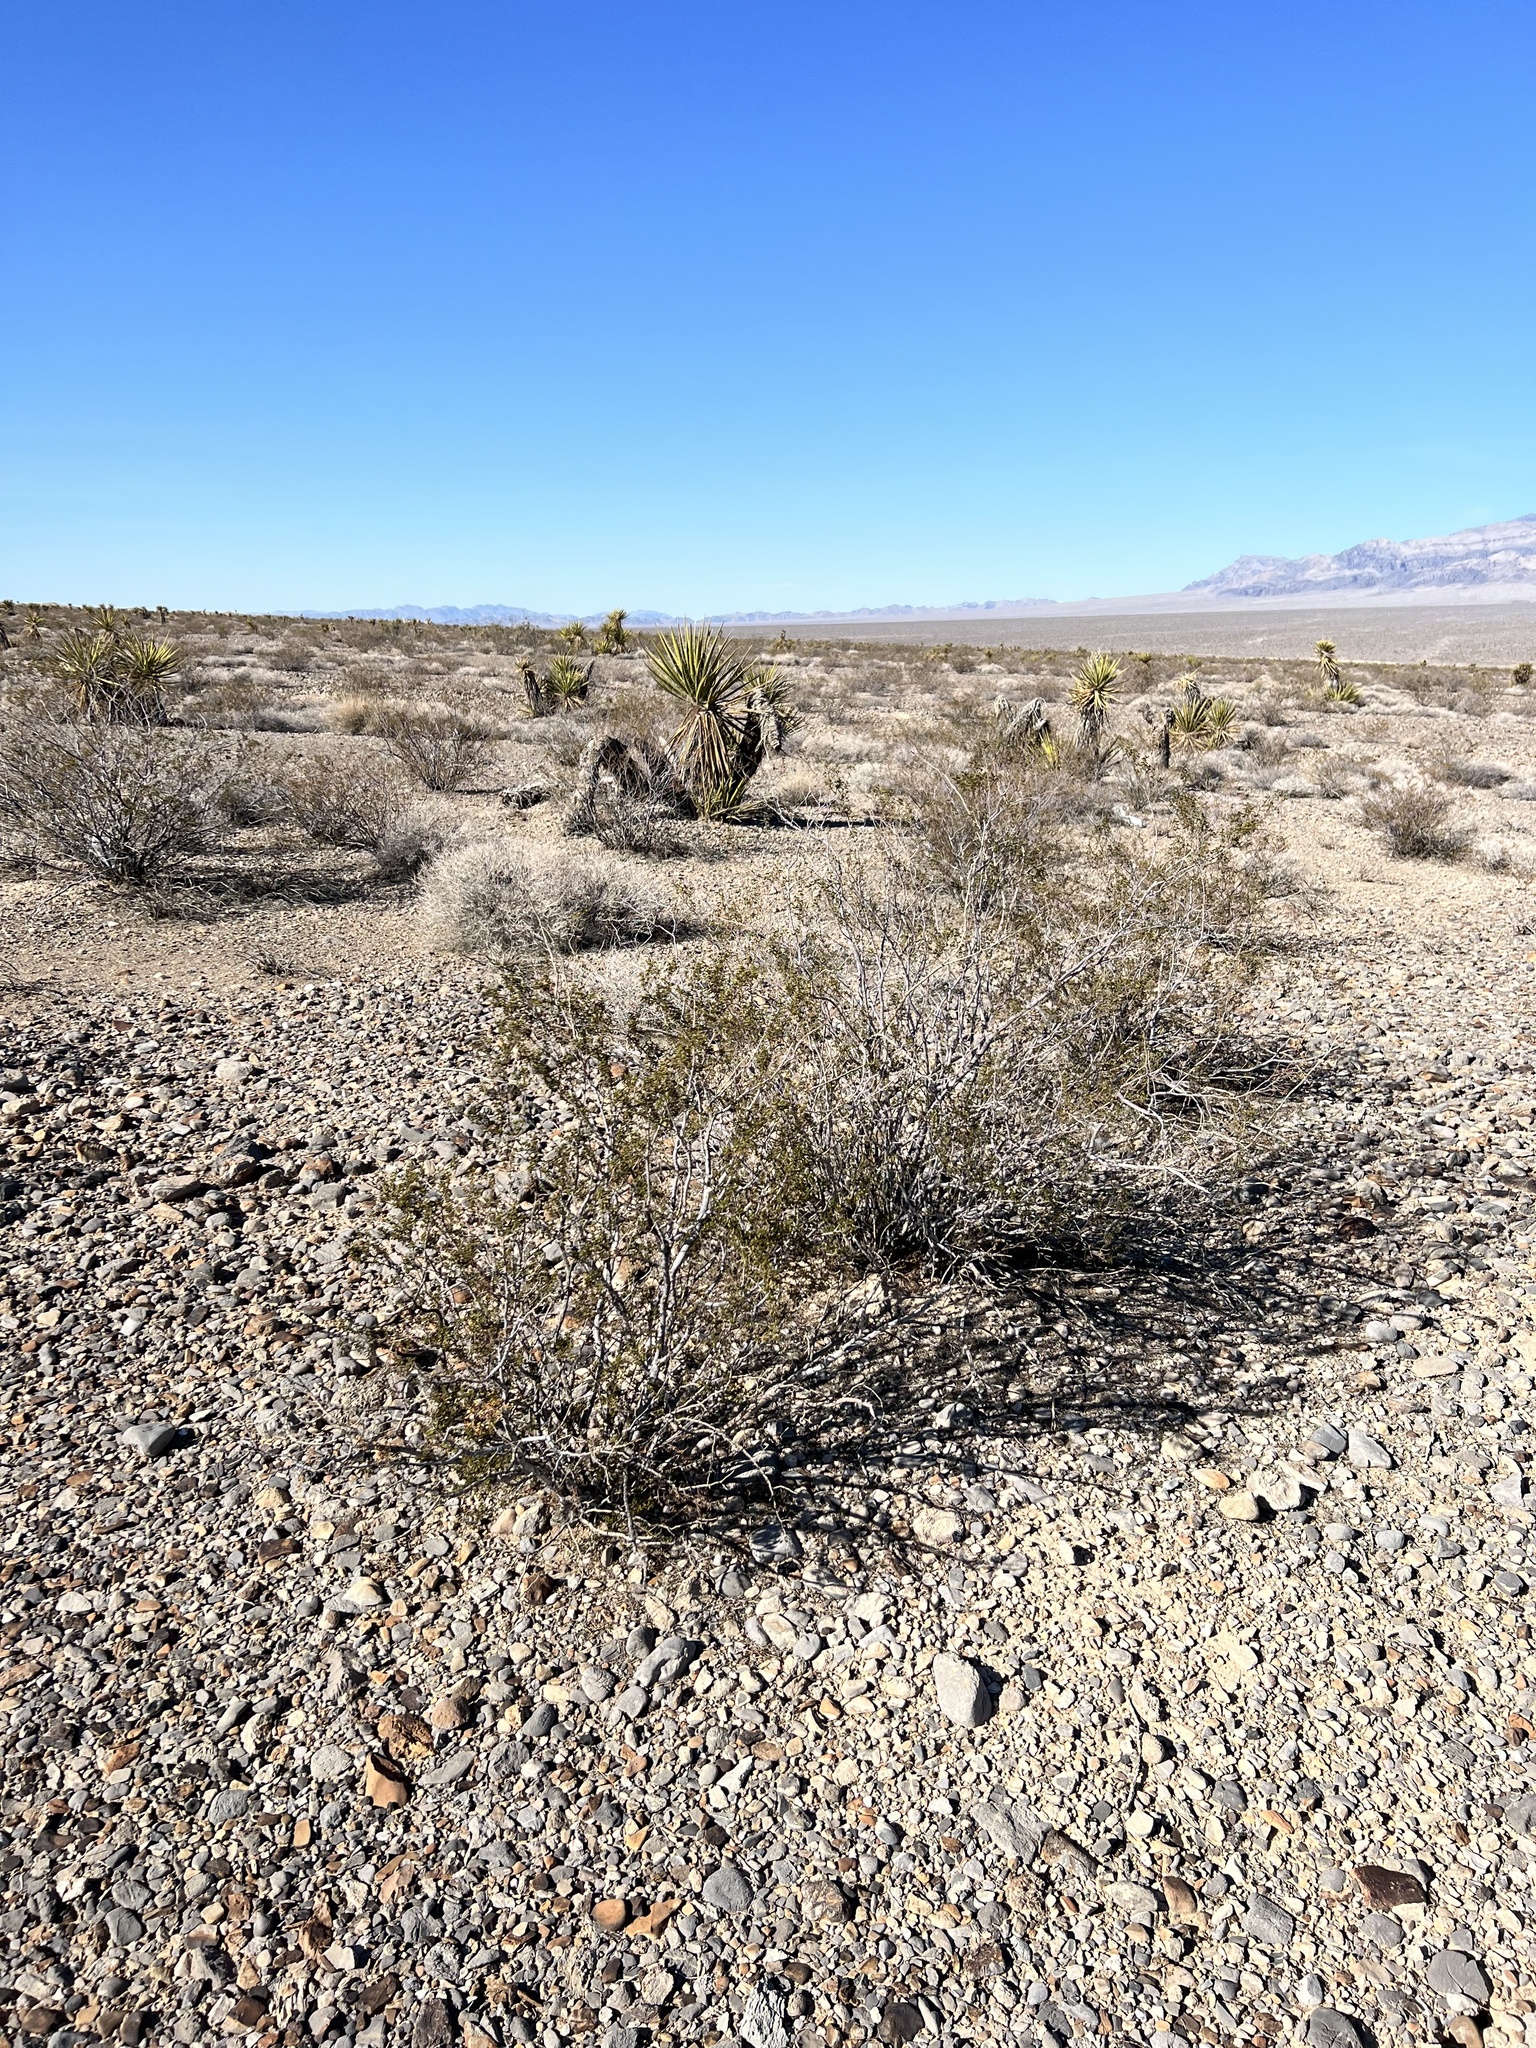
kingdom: Plantae
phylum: Tracheophyta
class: Magnoliopsida
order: Zygophyllales
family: Zygophyllaceae
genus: Larrea
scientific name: Larrea tridentata
